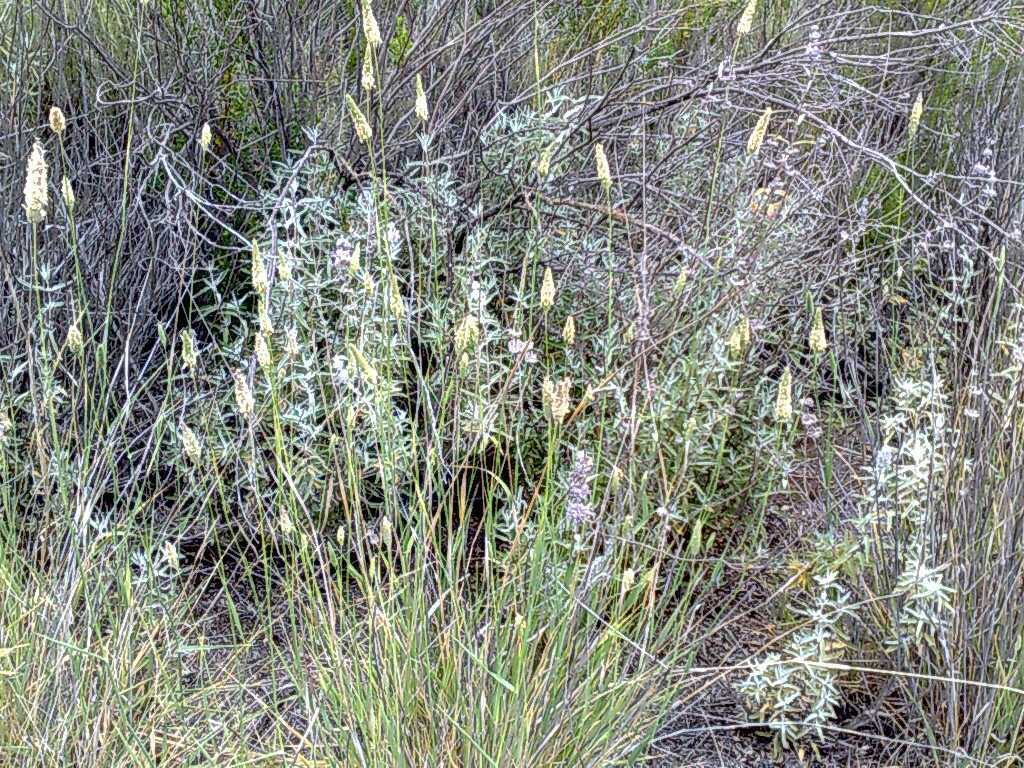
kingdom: Plantae
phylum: Tracheophyta
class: Liliopsida
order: Poales
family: Poaceae
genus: Phalaris
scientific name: Phalaris aquatica
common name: Bulbous canary-grass
